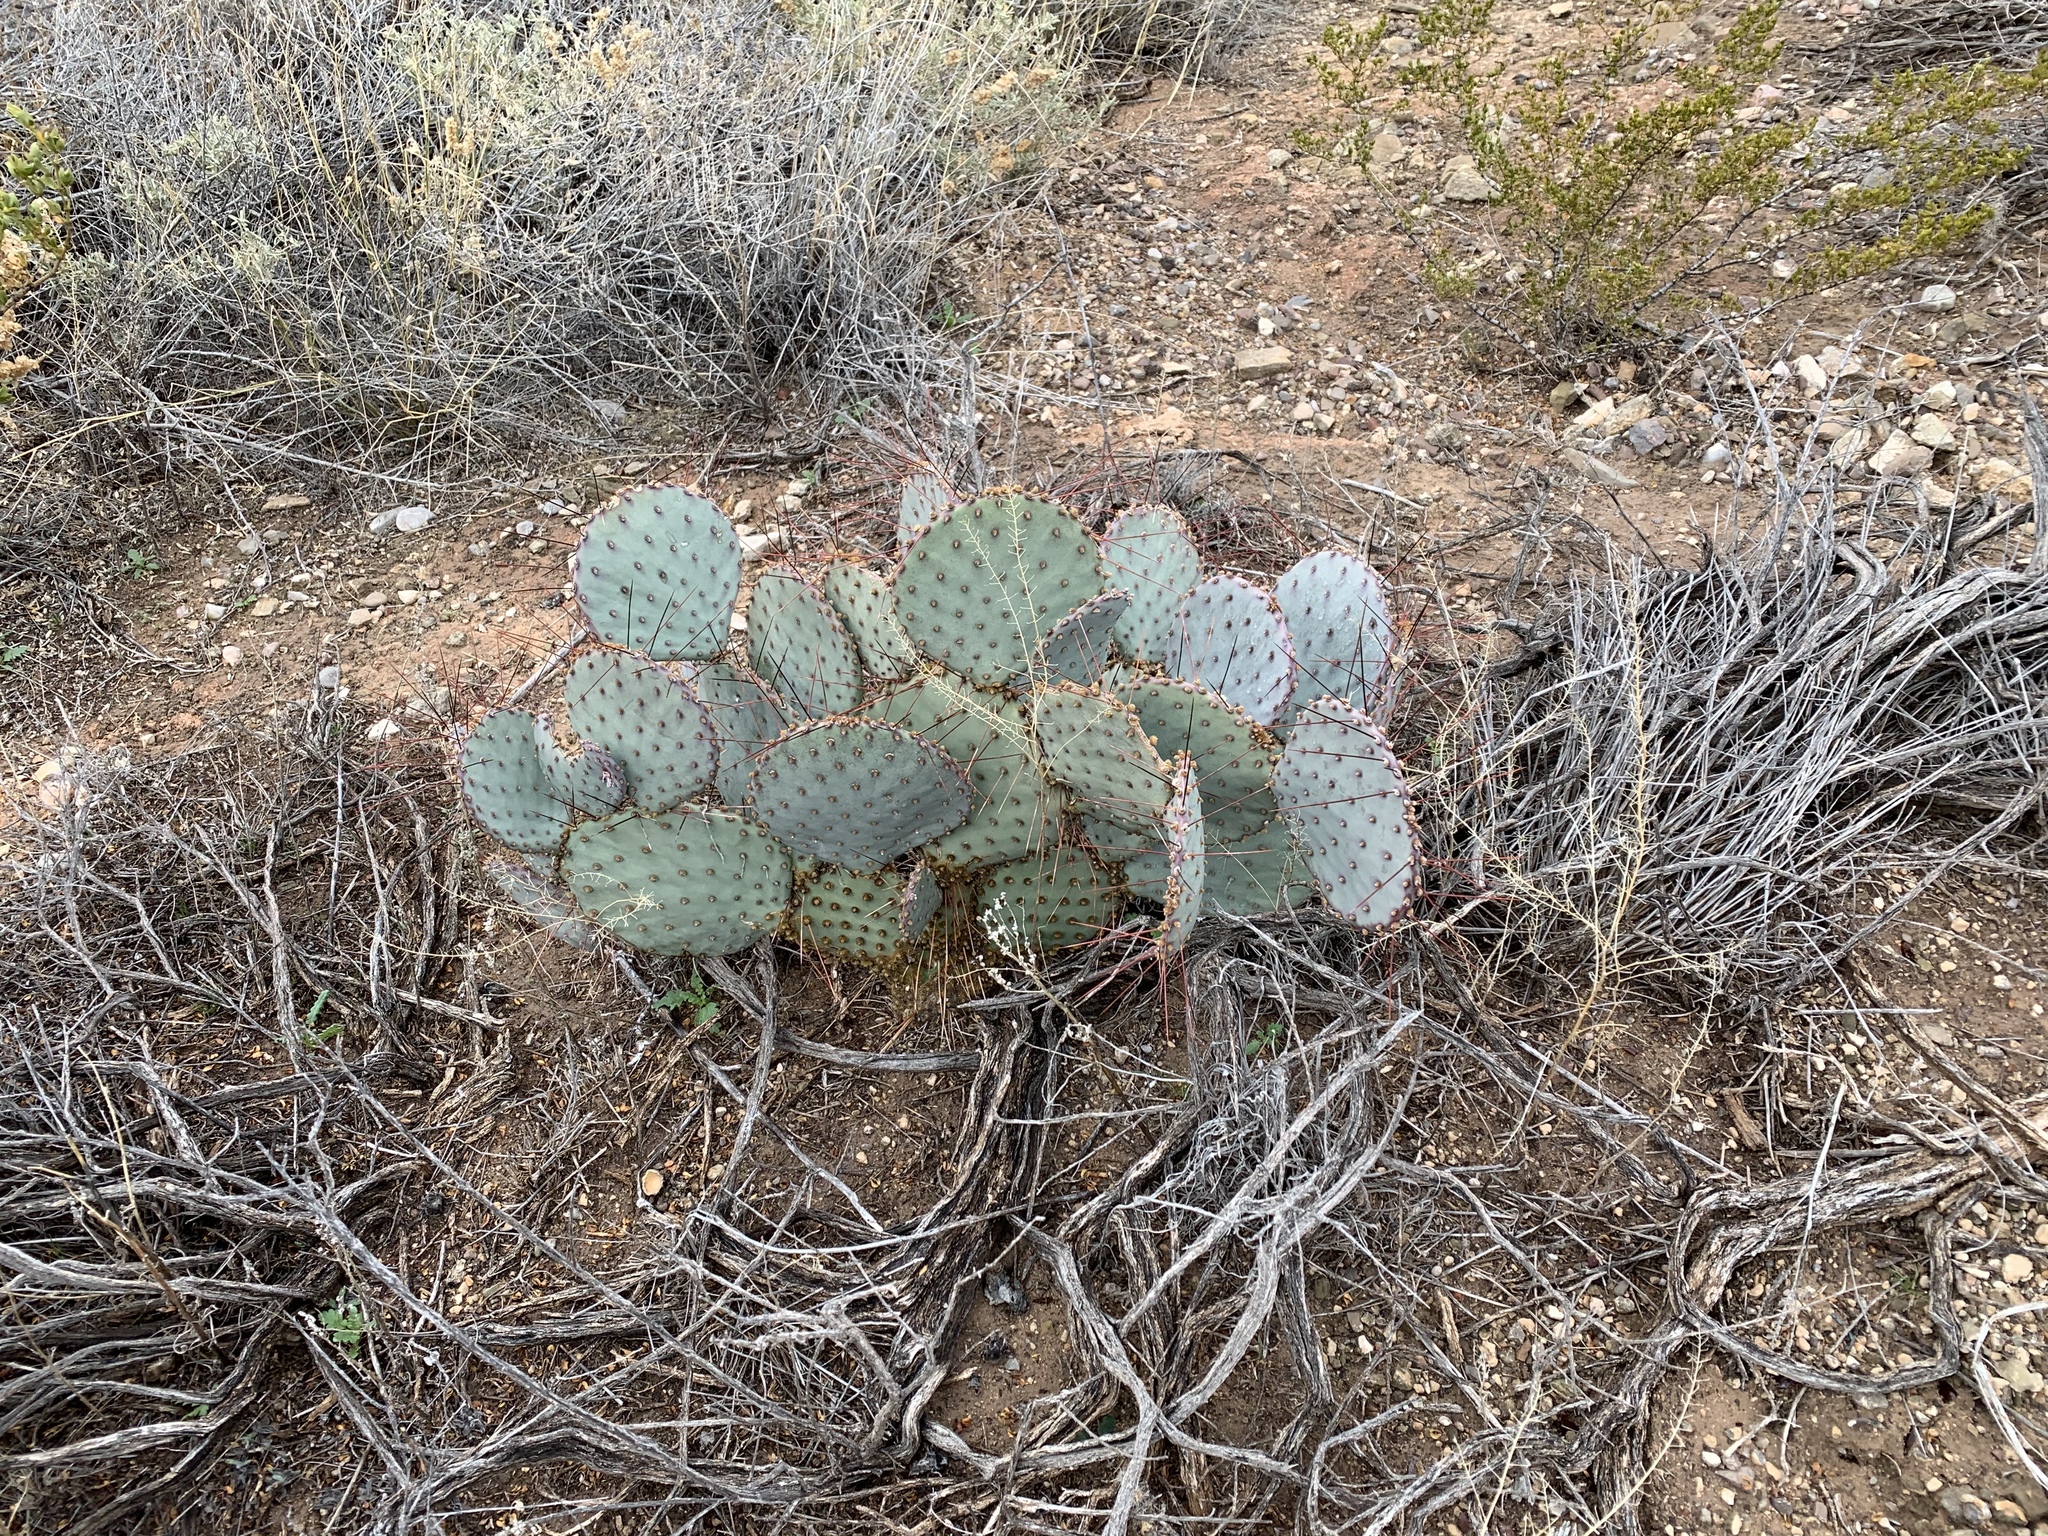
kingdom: Plantae
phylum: Tracheophyta
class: Magnoliopsida
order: Caryophyllales
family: Cactaceae
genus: Opuntia
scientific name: Opuntia macrocentra
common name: Purple prickly-pear
